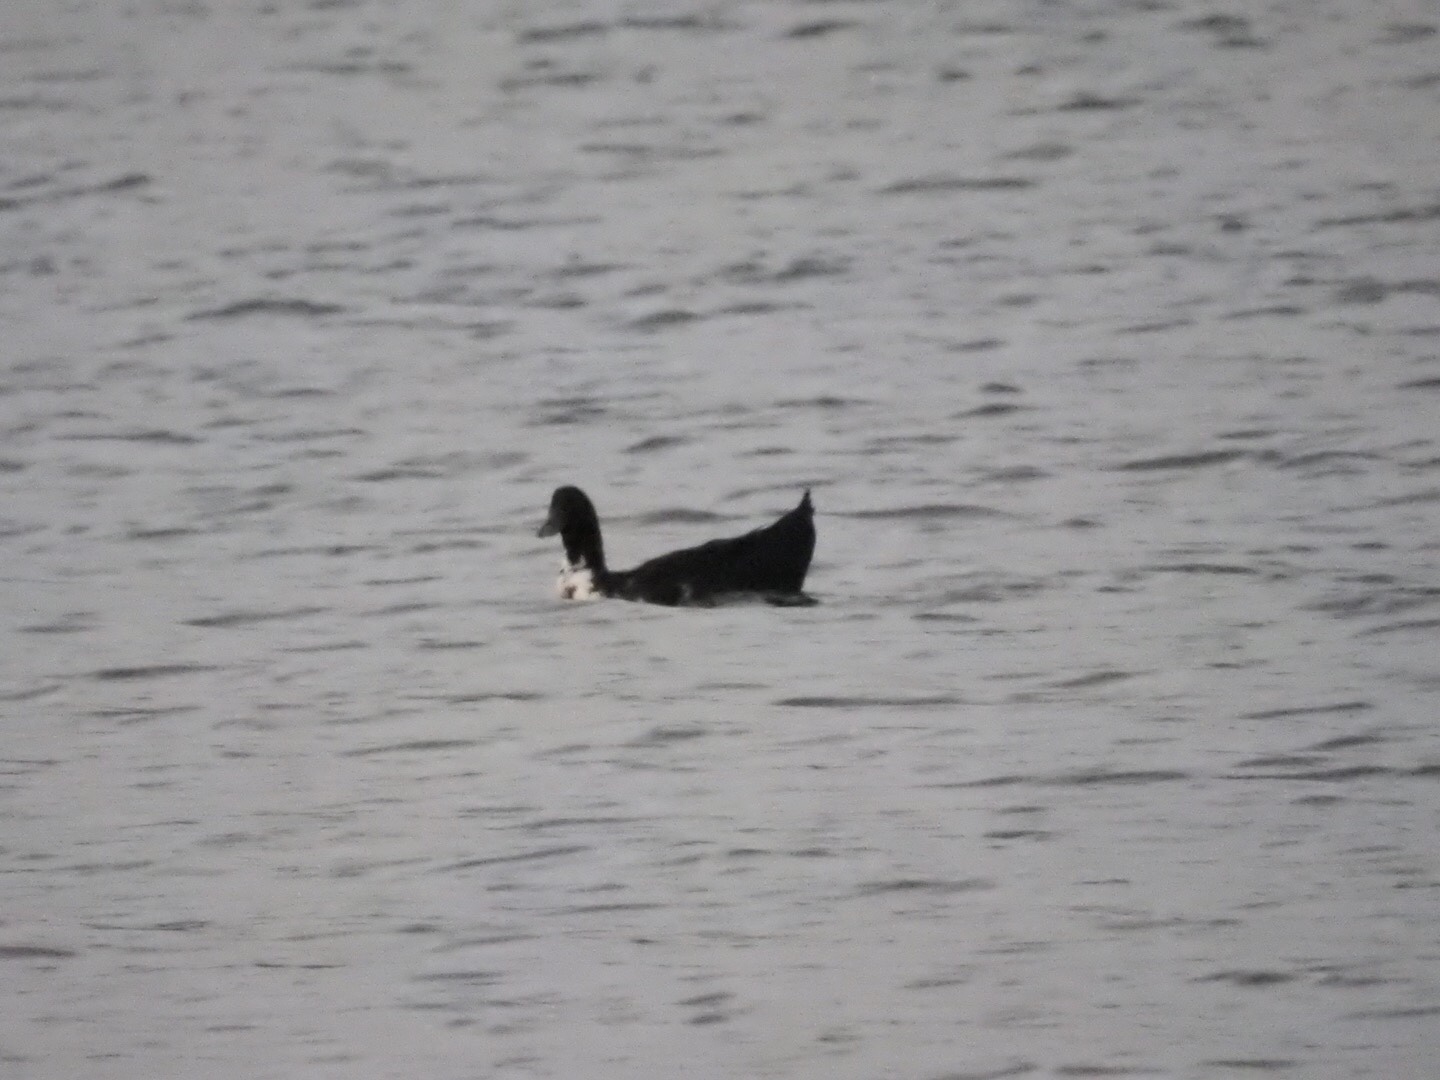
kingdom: Animalia
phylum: Chordata
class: Aves
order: Anseriformes
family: Anatidae
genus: Anas
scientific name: Anas platyrhynchos
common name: Mallard
